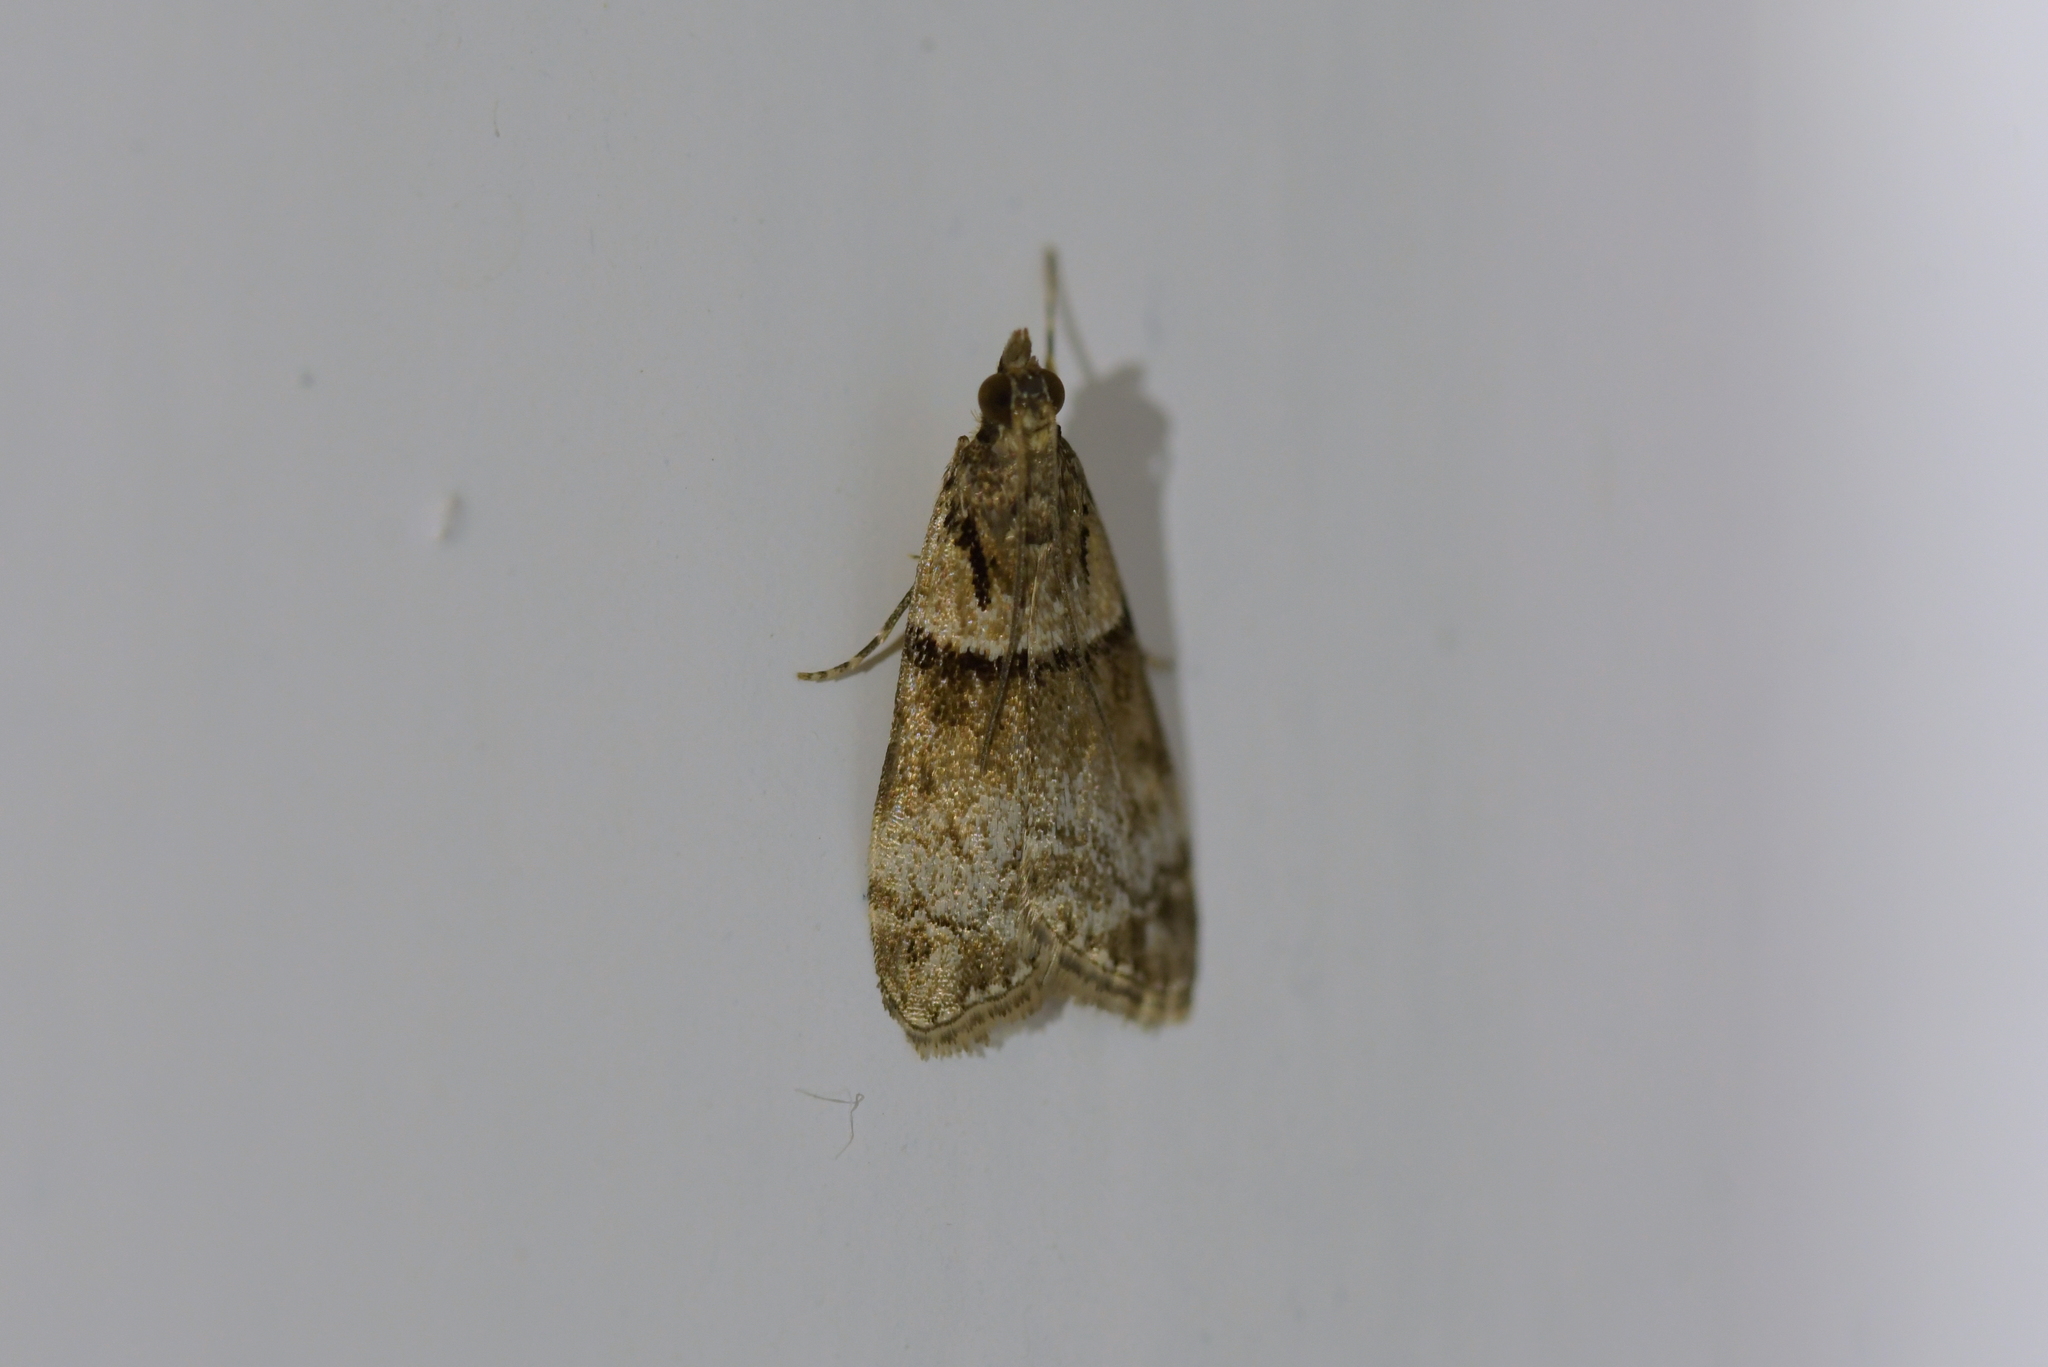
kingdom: Animalia
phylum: Arthropoda
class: Insecta
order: Lepidoptera
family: Crambidae
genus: Eudonia
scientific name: Eudonia colpota
